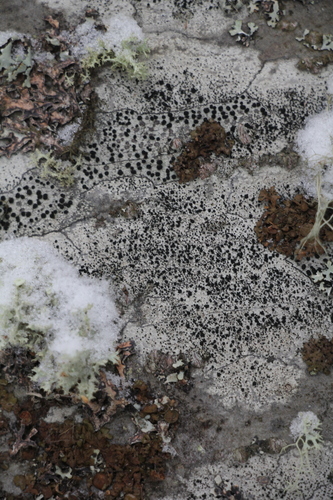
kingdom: Fungi
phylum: Ascomycota
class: Lecanoromycetes
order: Lecanorales
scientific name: Lecanorales
